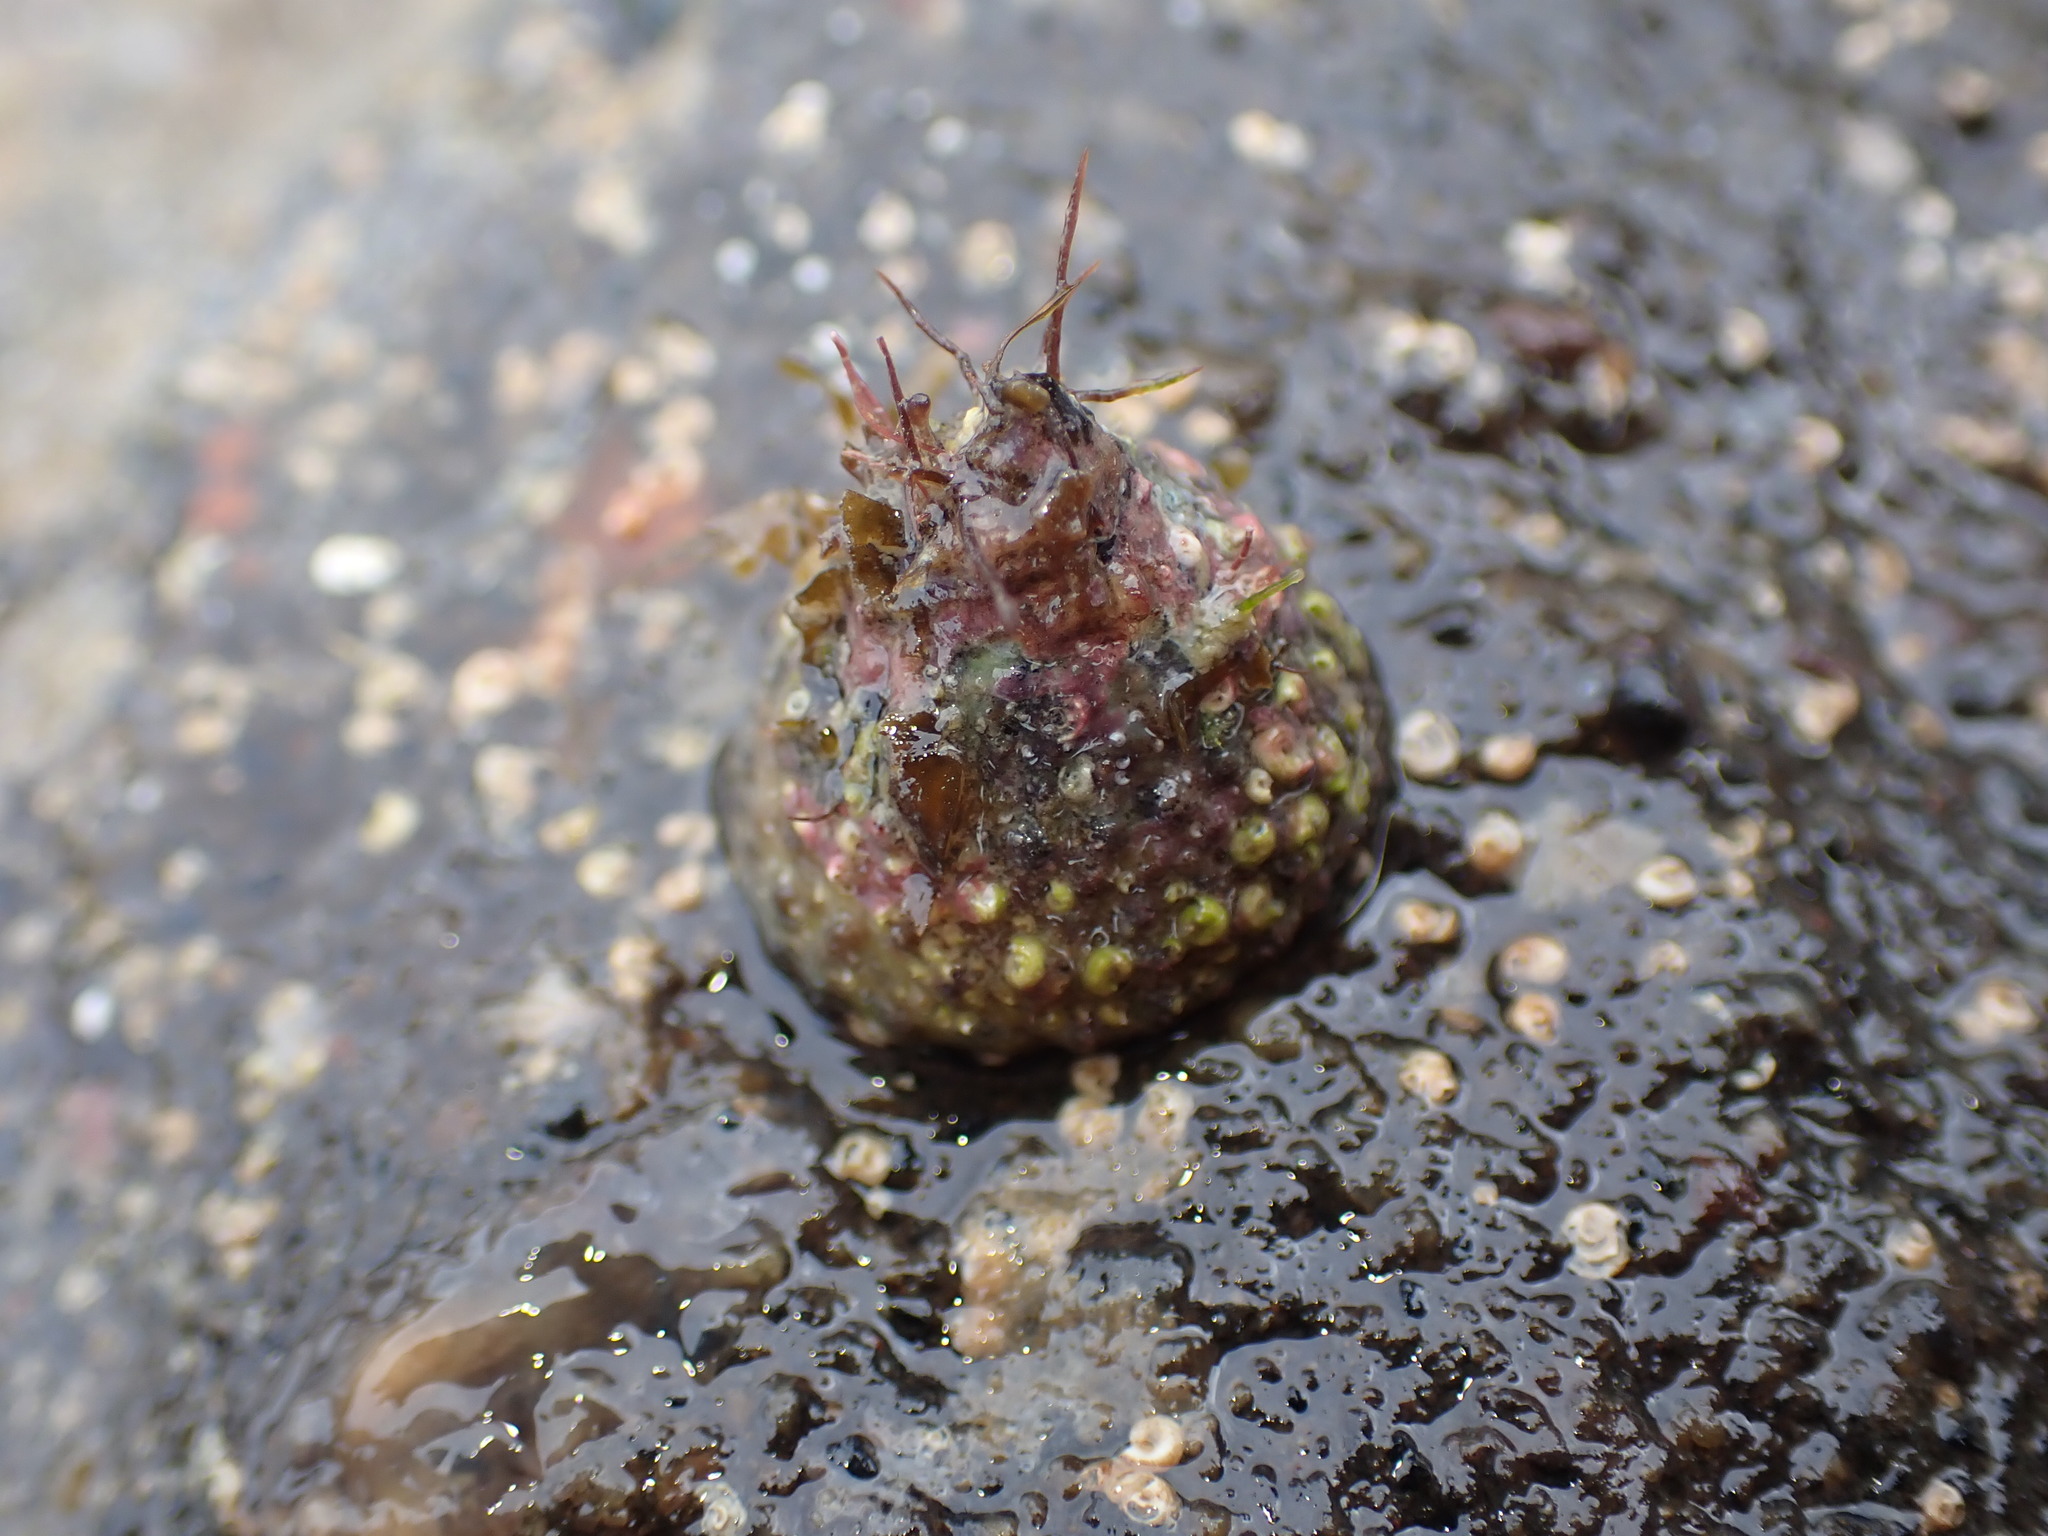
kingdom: Animalia
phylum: Mollusca
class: Gastropoda
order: Trochida
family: Trochidae
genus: Coelotrochus
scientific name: Coelotrochus viridis
